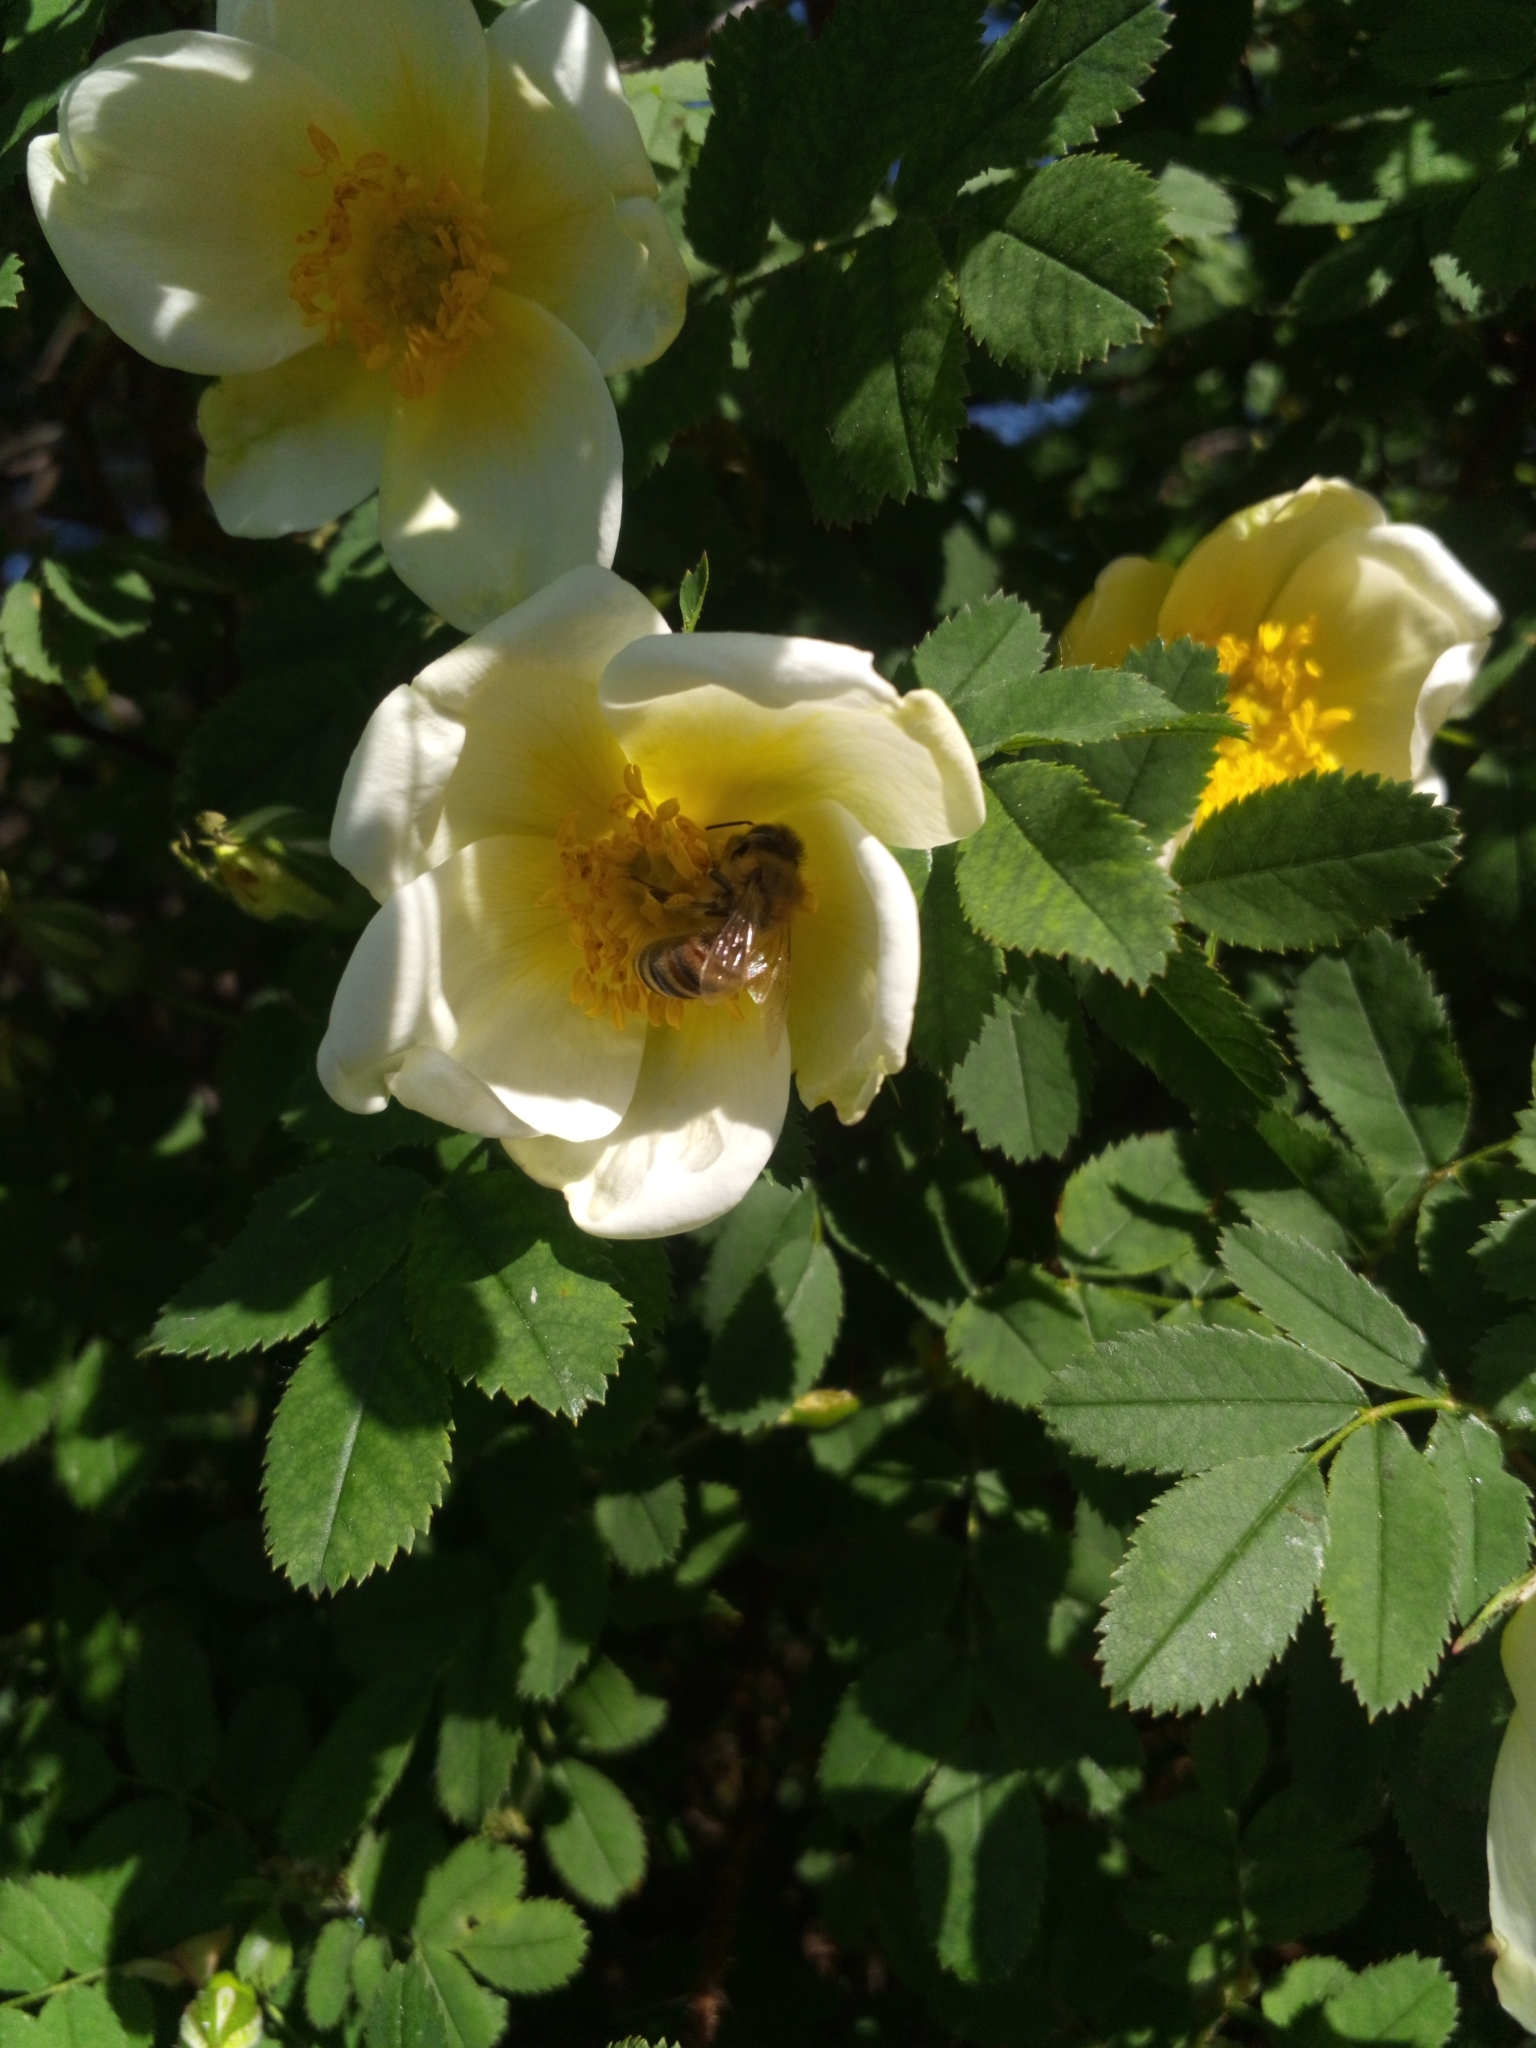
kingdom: Animalia
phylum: Arthropoda
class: Insecta
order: Hymenoptera
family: Apidae
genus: Apis
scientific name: Apis mellifera
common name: Honey bee
